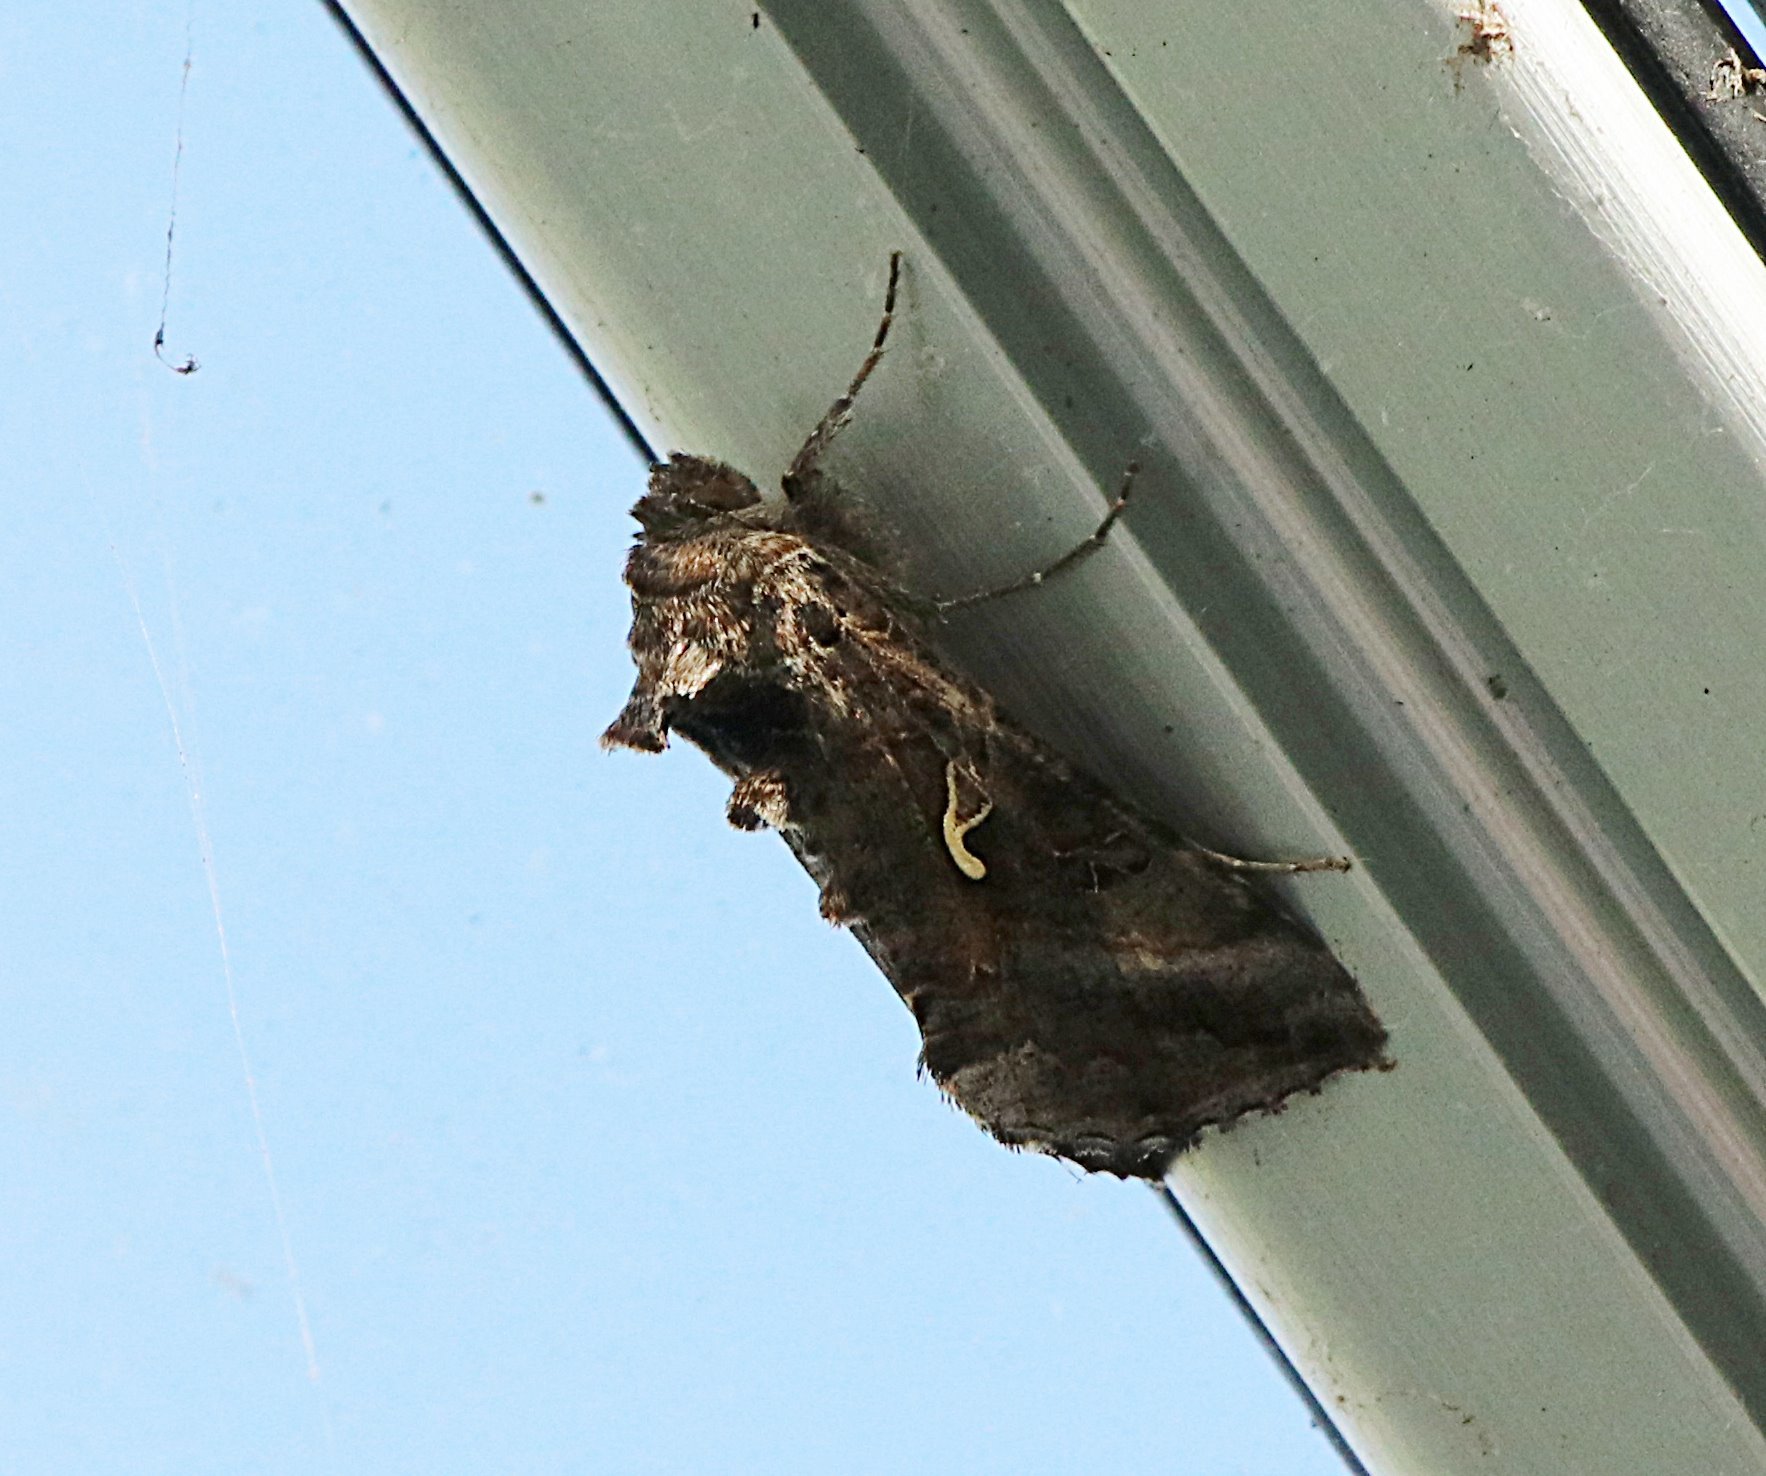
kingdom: Animalia
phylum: Arthropoda
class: Insecta
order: Lepidoptera
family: Noctuidae
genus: Autographa
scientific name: Autographa gamma
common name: Silver y
